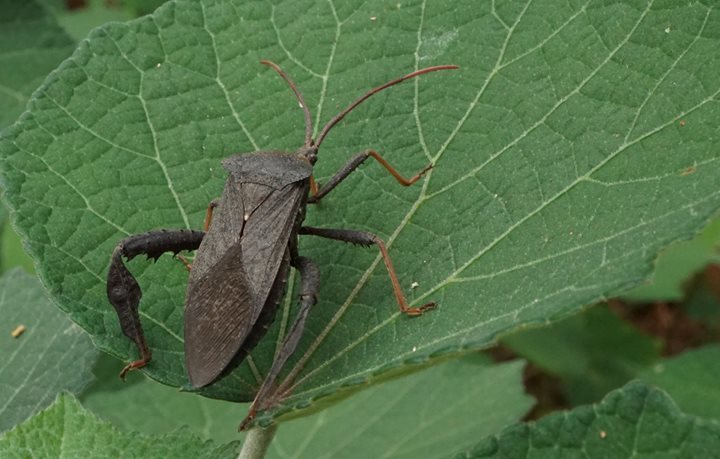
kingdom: Animalia
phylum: Arthropoda
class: Insecta
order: Hemiptera
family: Coreidae
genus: Acanthocephala
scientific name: Acanthocephala femorata
